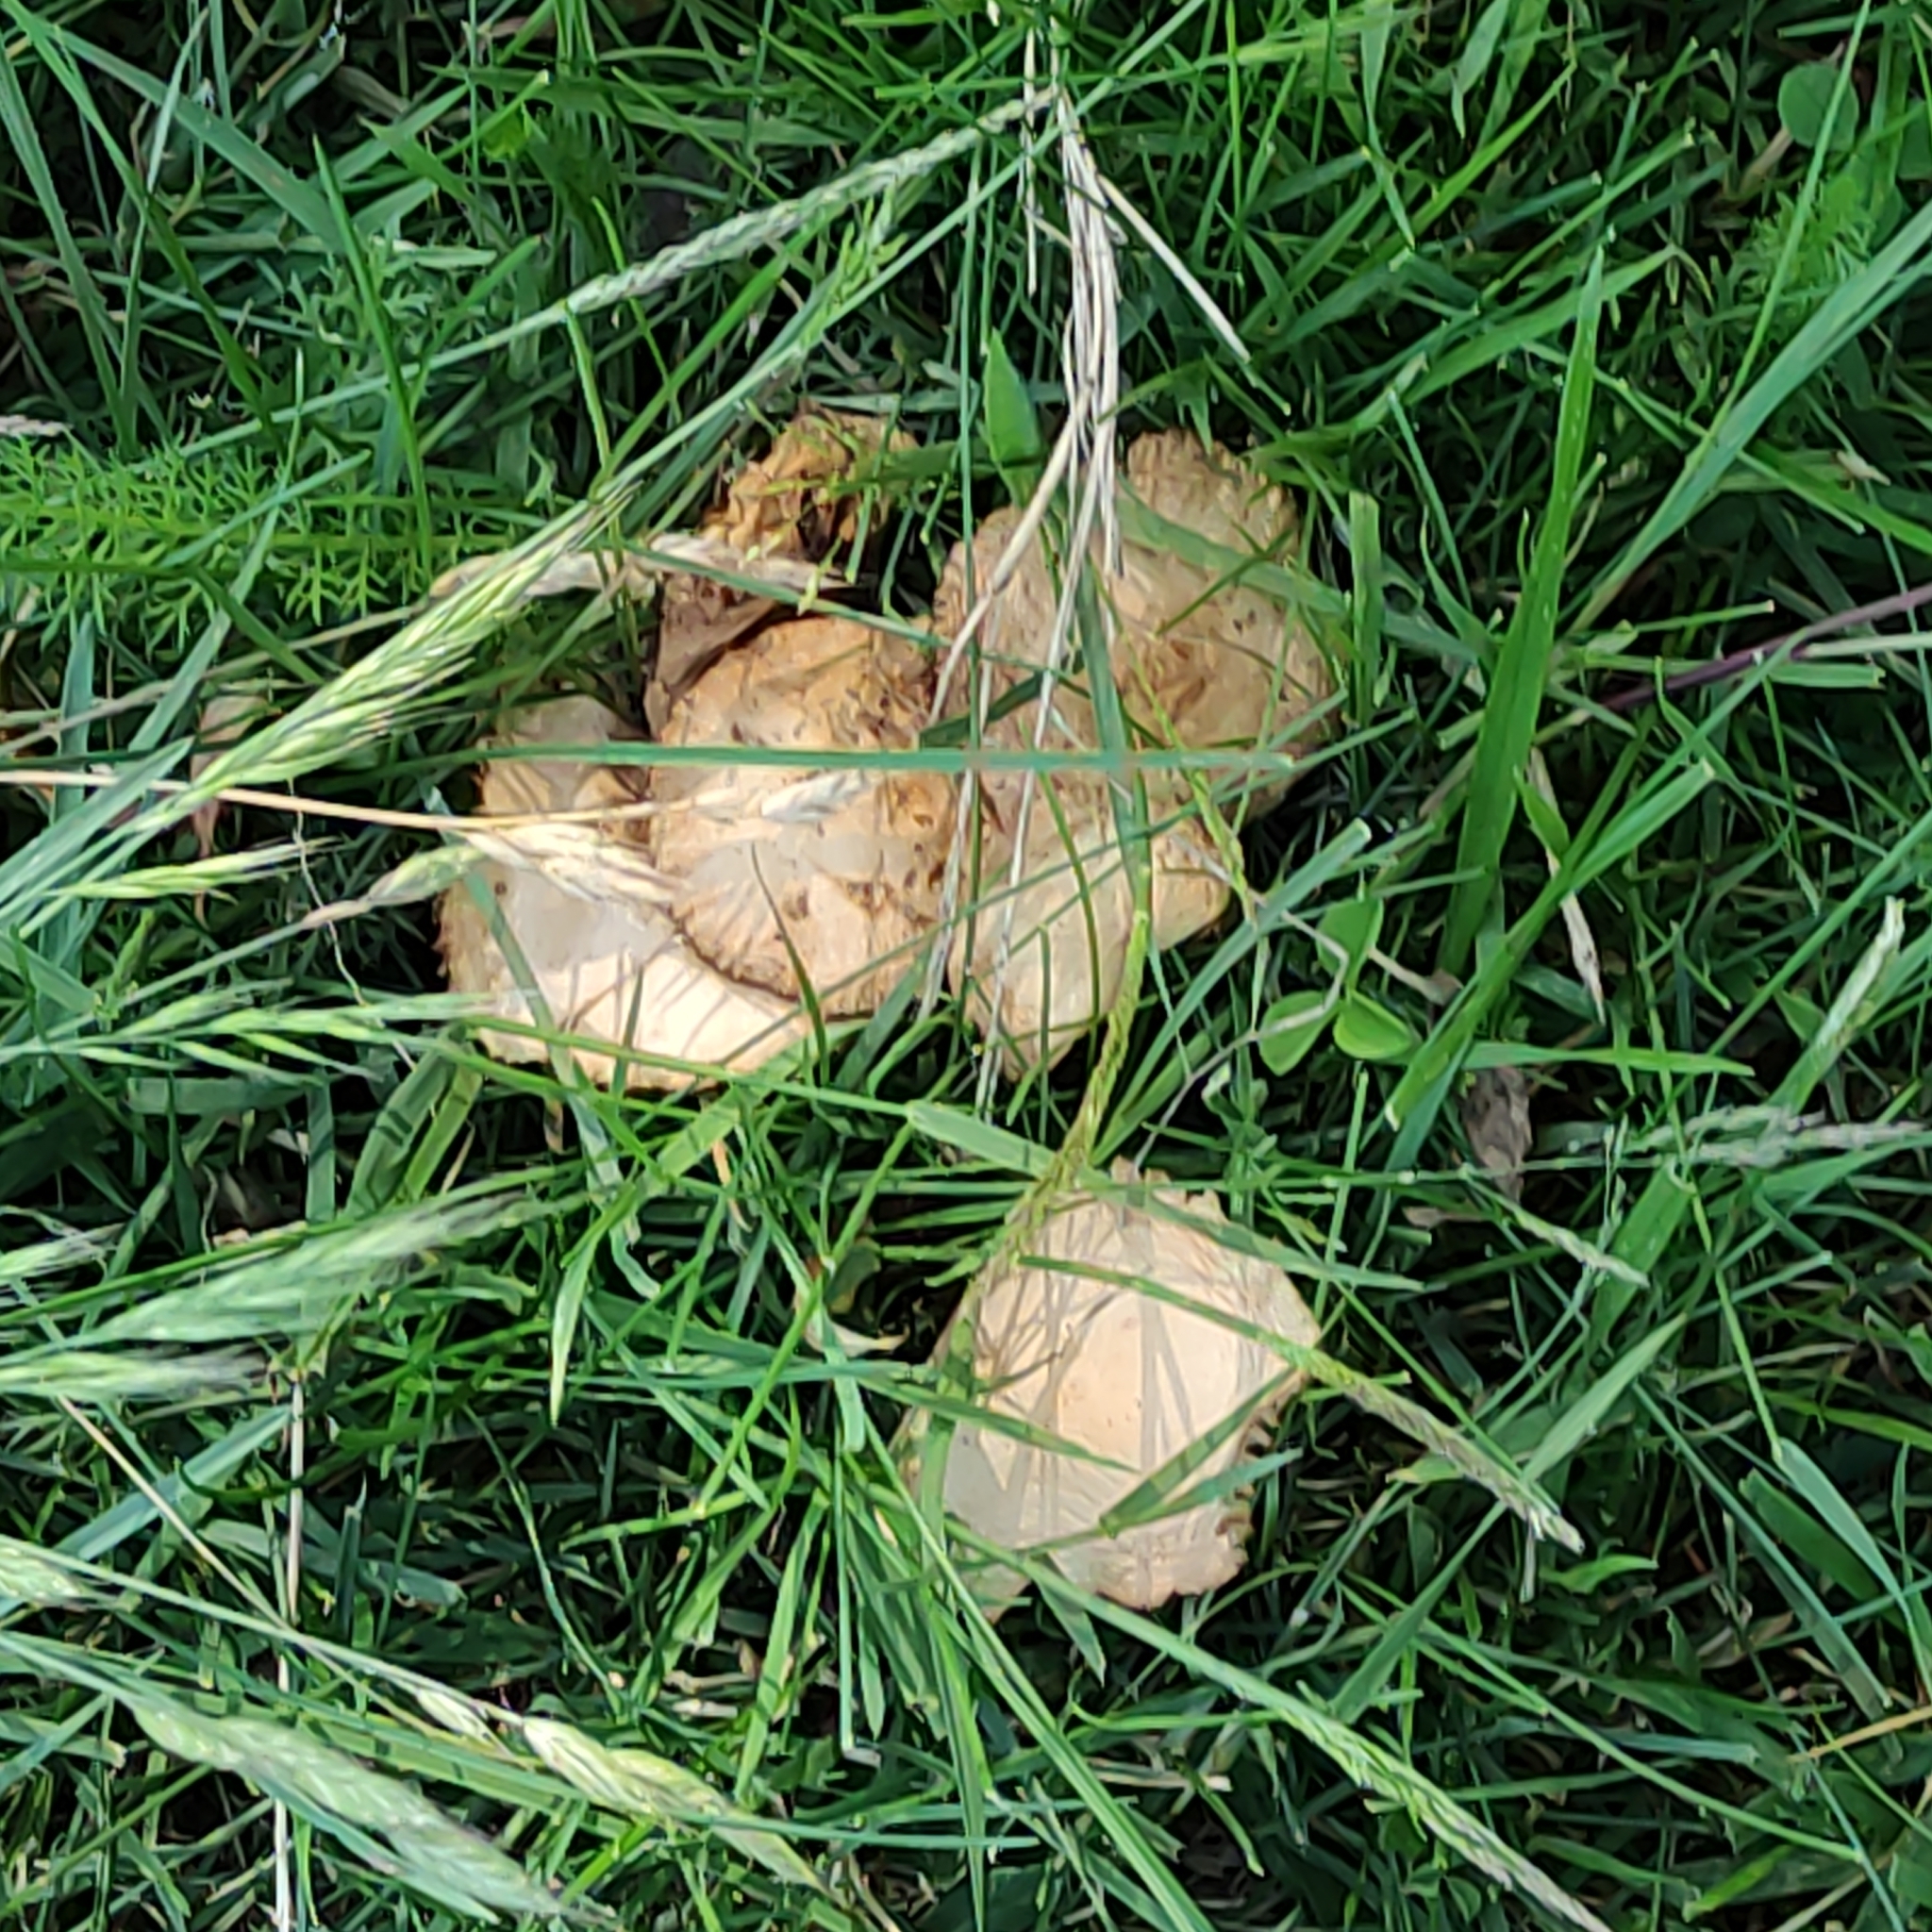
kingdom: Fungi
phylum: Basidiomycota
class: Agaricomycetes
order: Agaricales
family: Marasmiaceae
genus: Marasmius
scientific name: Marasmius oreades
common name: Fairy ring champignon
